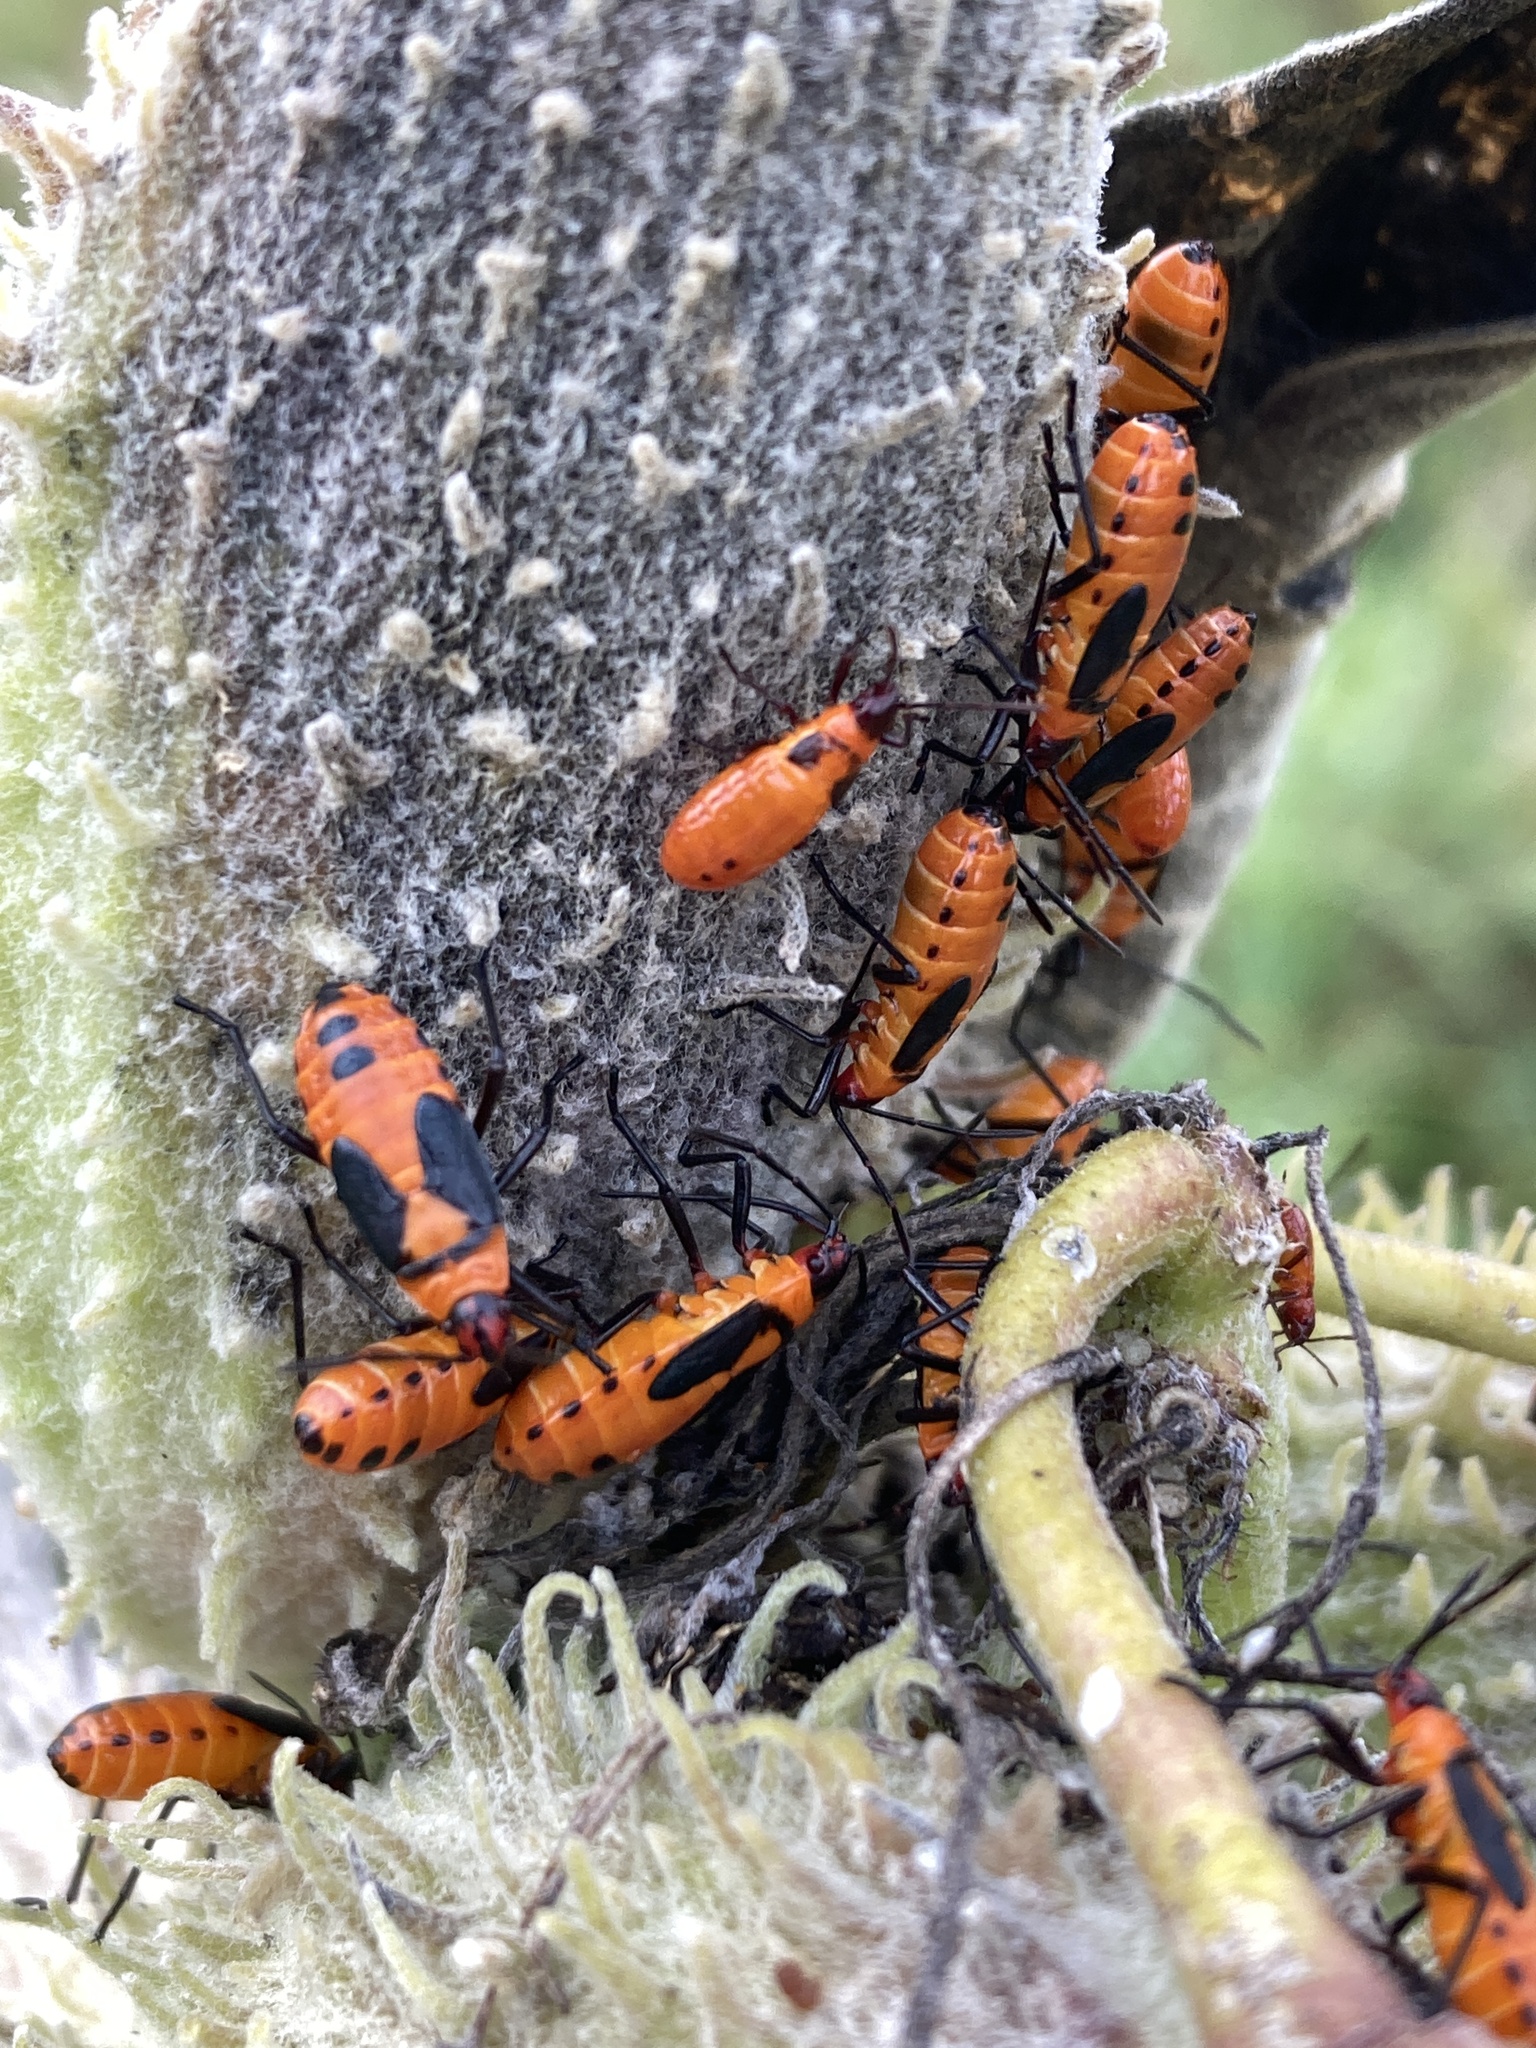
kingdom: Animalia
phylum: Arthropoda
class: Insecta
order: Hemiptera
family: Lygaeidae
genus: Oncopeltus
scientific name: Oncopeltus fasciatus
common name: Large milkweed bug
